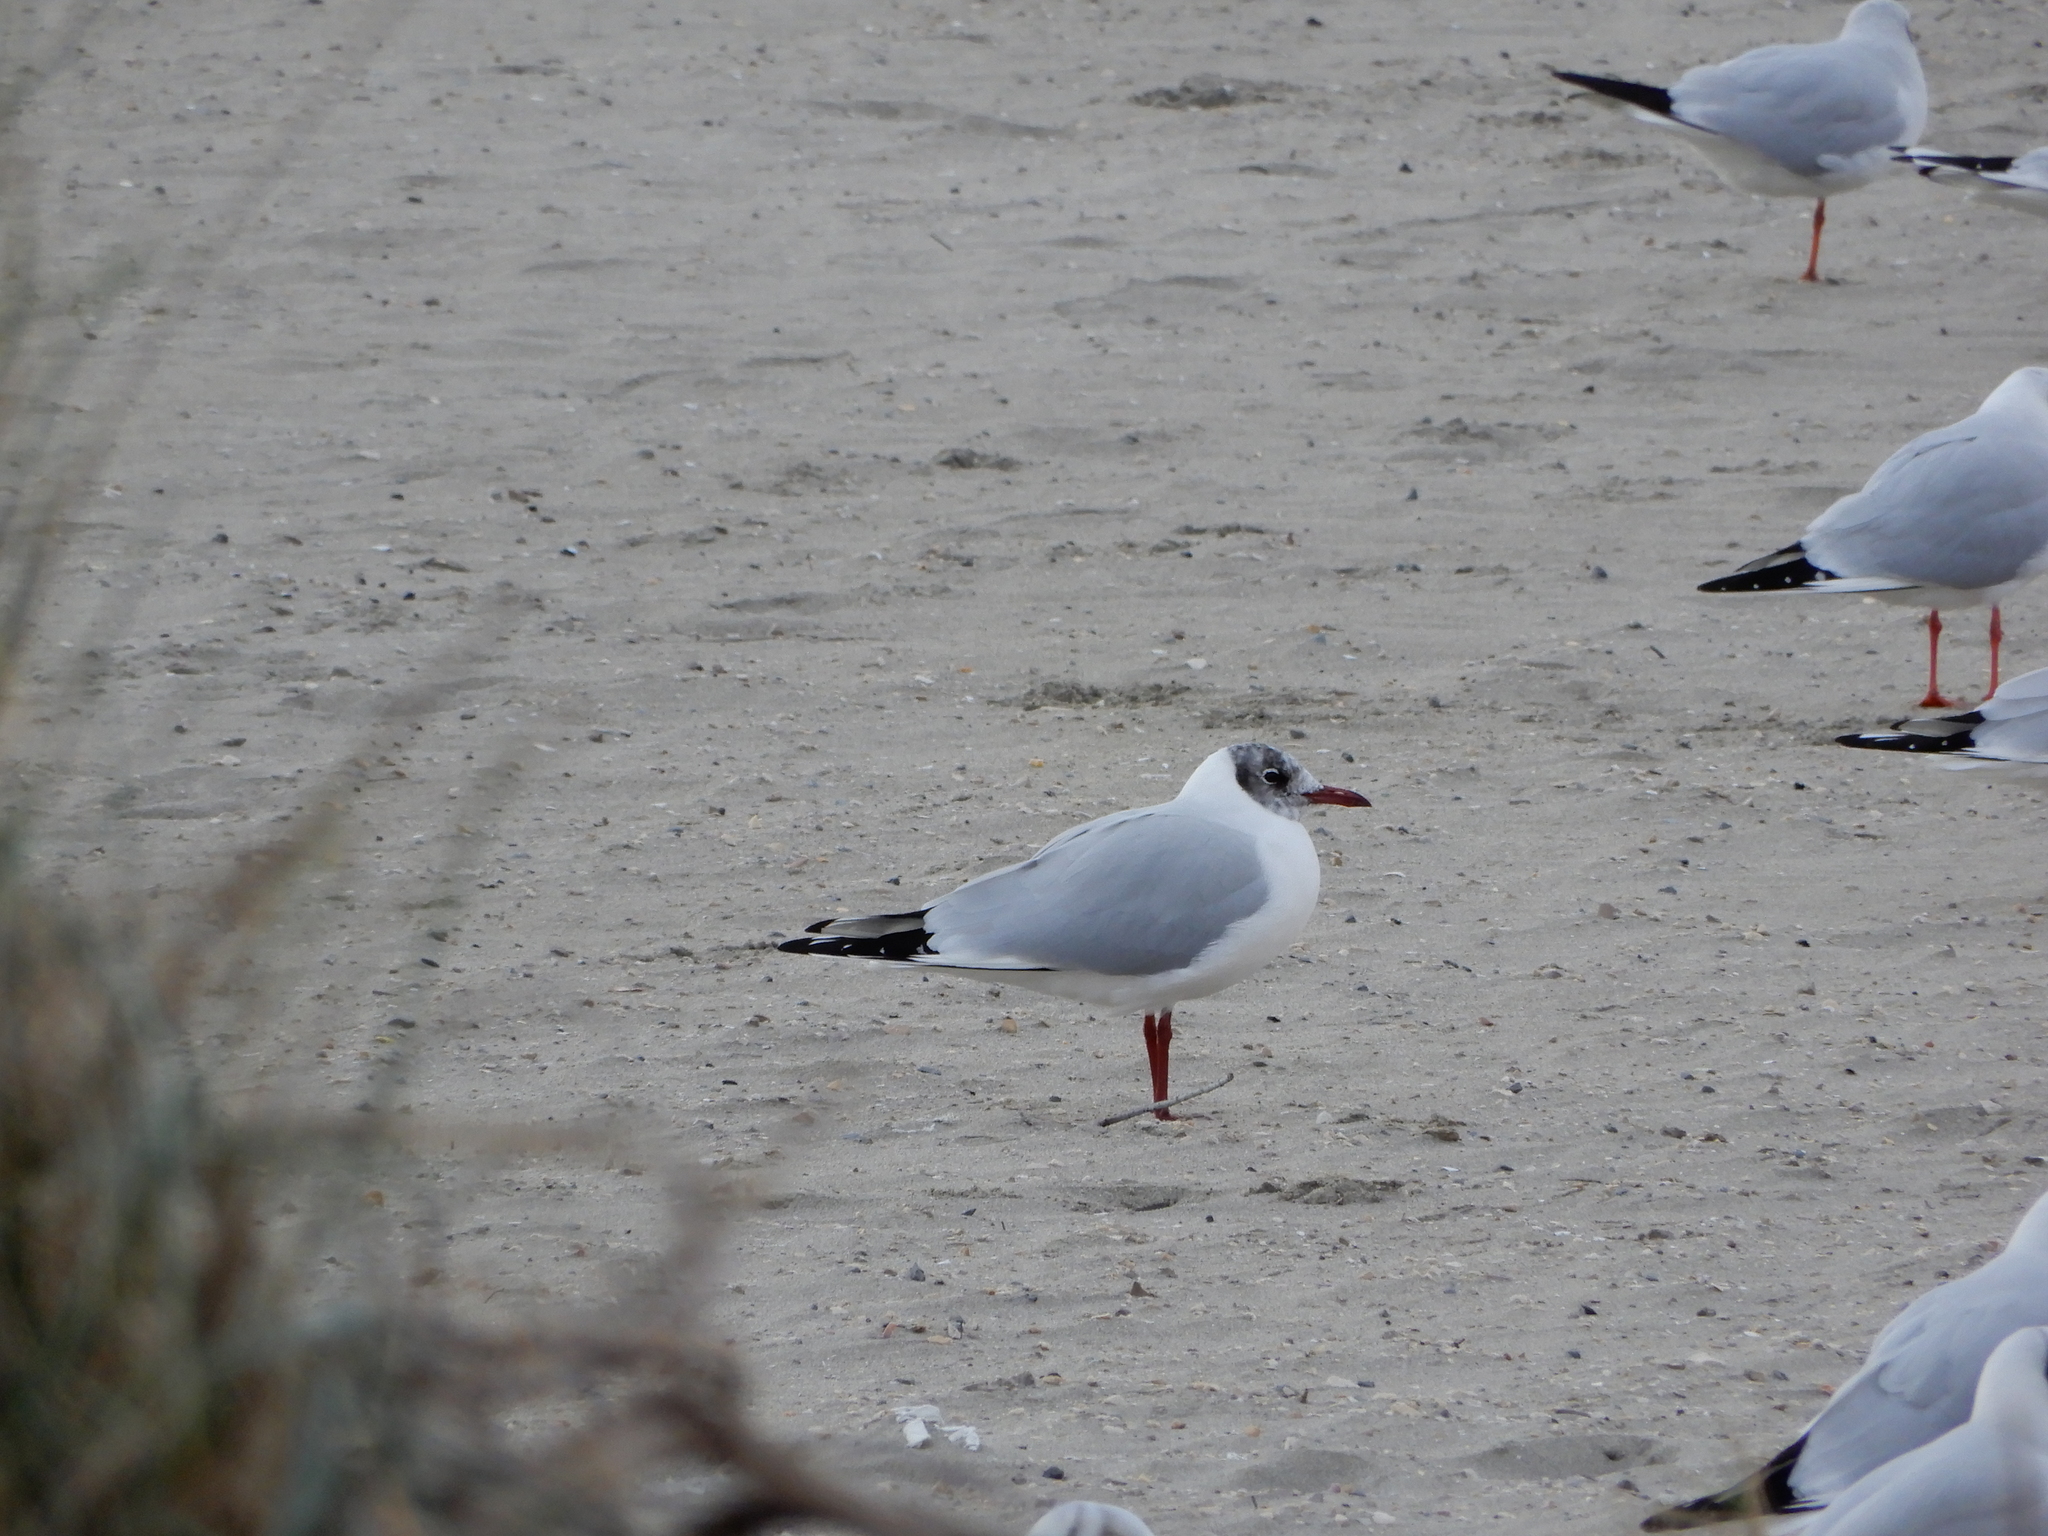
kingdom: Animalia
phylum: Chordata
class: Aves
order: Charadriiformes
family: Laridae
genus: Chroicocephalus
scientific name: Chroicocephalus ridibundus
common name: Black-headed gull
